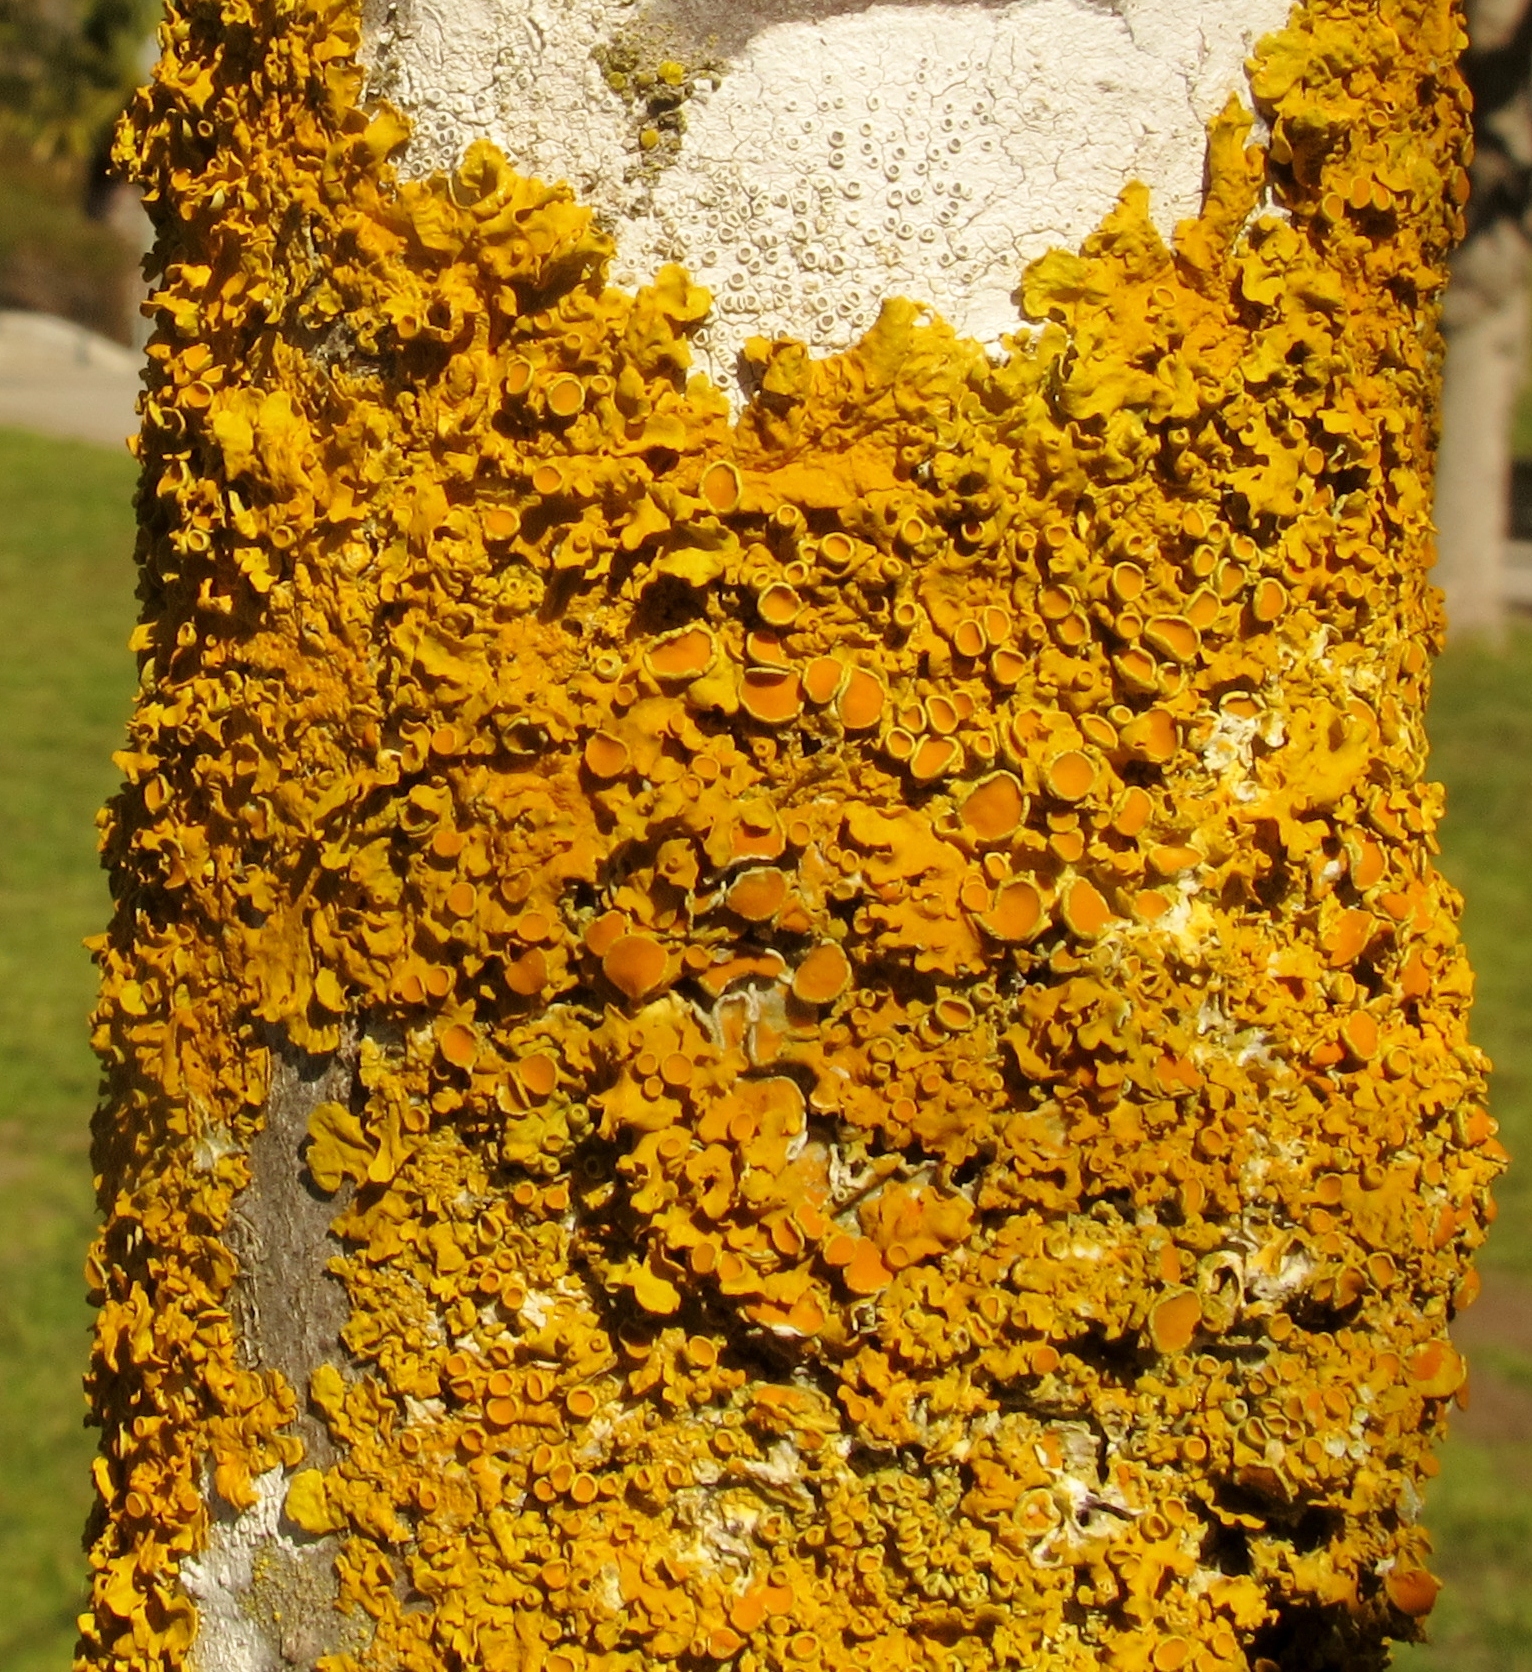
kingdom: Fungi
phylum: Ascomycota
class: Lecanoromycetes
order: Teloschistales
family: Teloschistaceae
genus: Xanthoria
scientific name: Xanthoria parietina
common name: Common orange lichen
